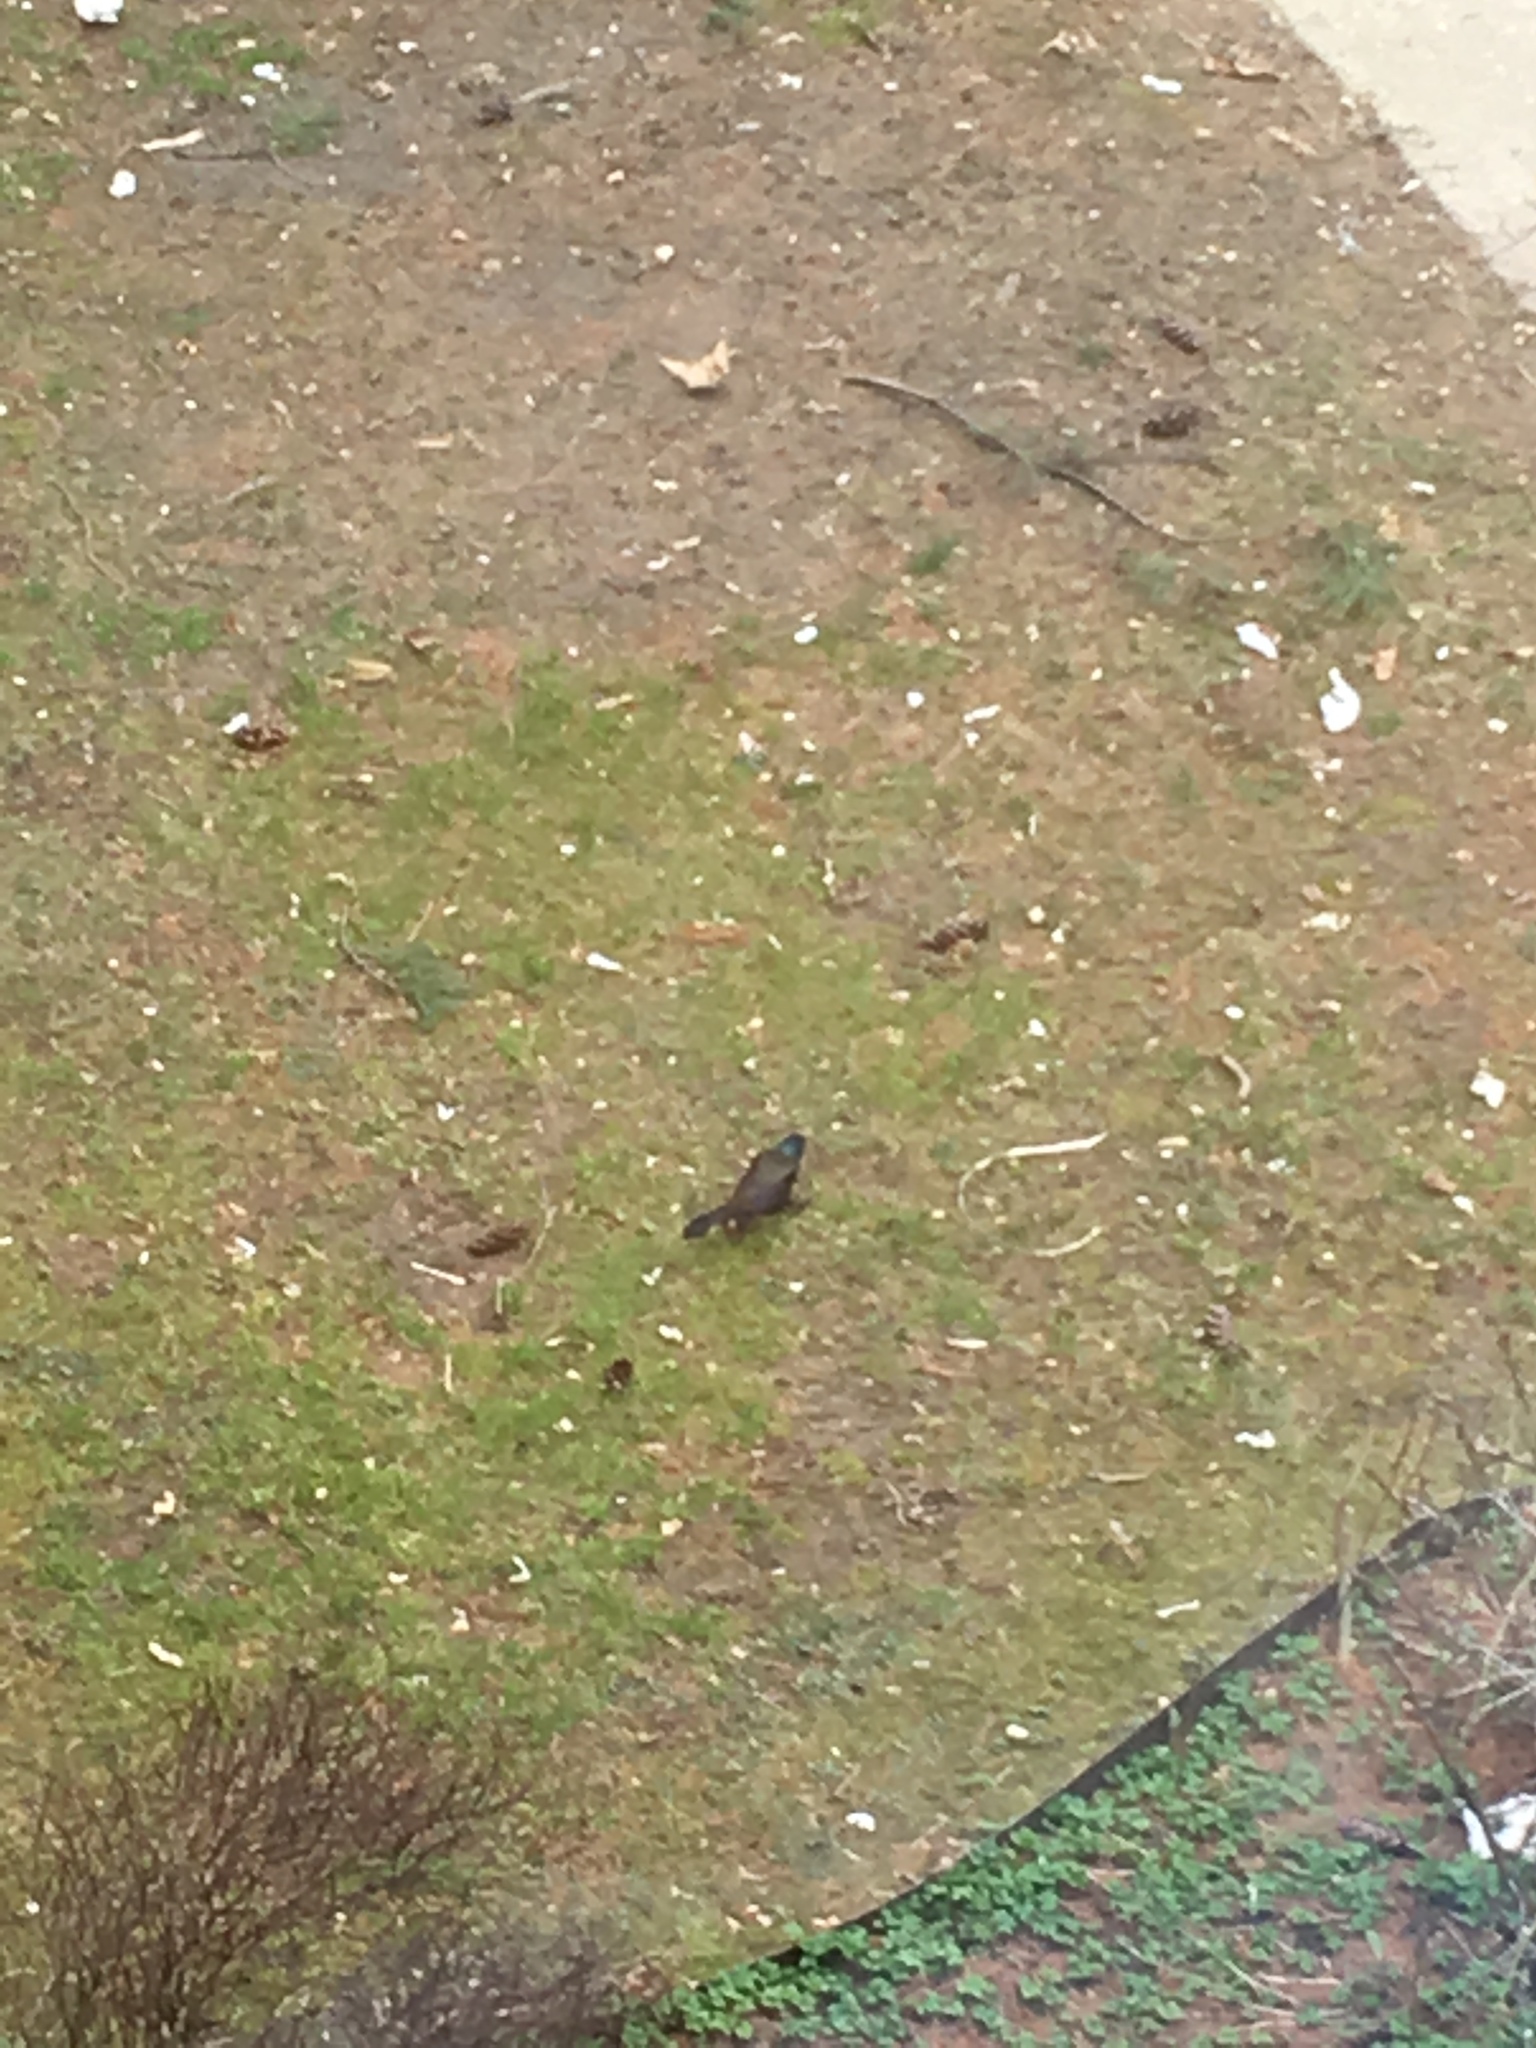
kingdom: Animalia
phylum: Chordata
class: Aves
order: Passeriformes
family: Icteridae
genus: Quiscalus
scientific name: Quiscalus quiscula
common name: Common grackle
